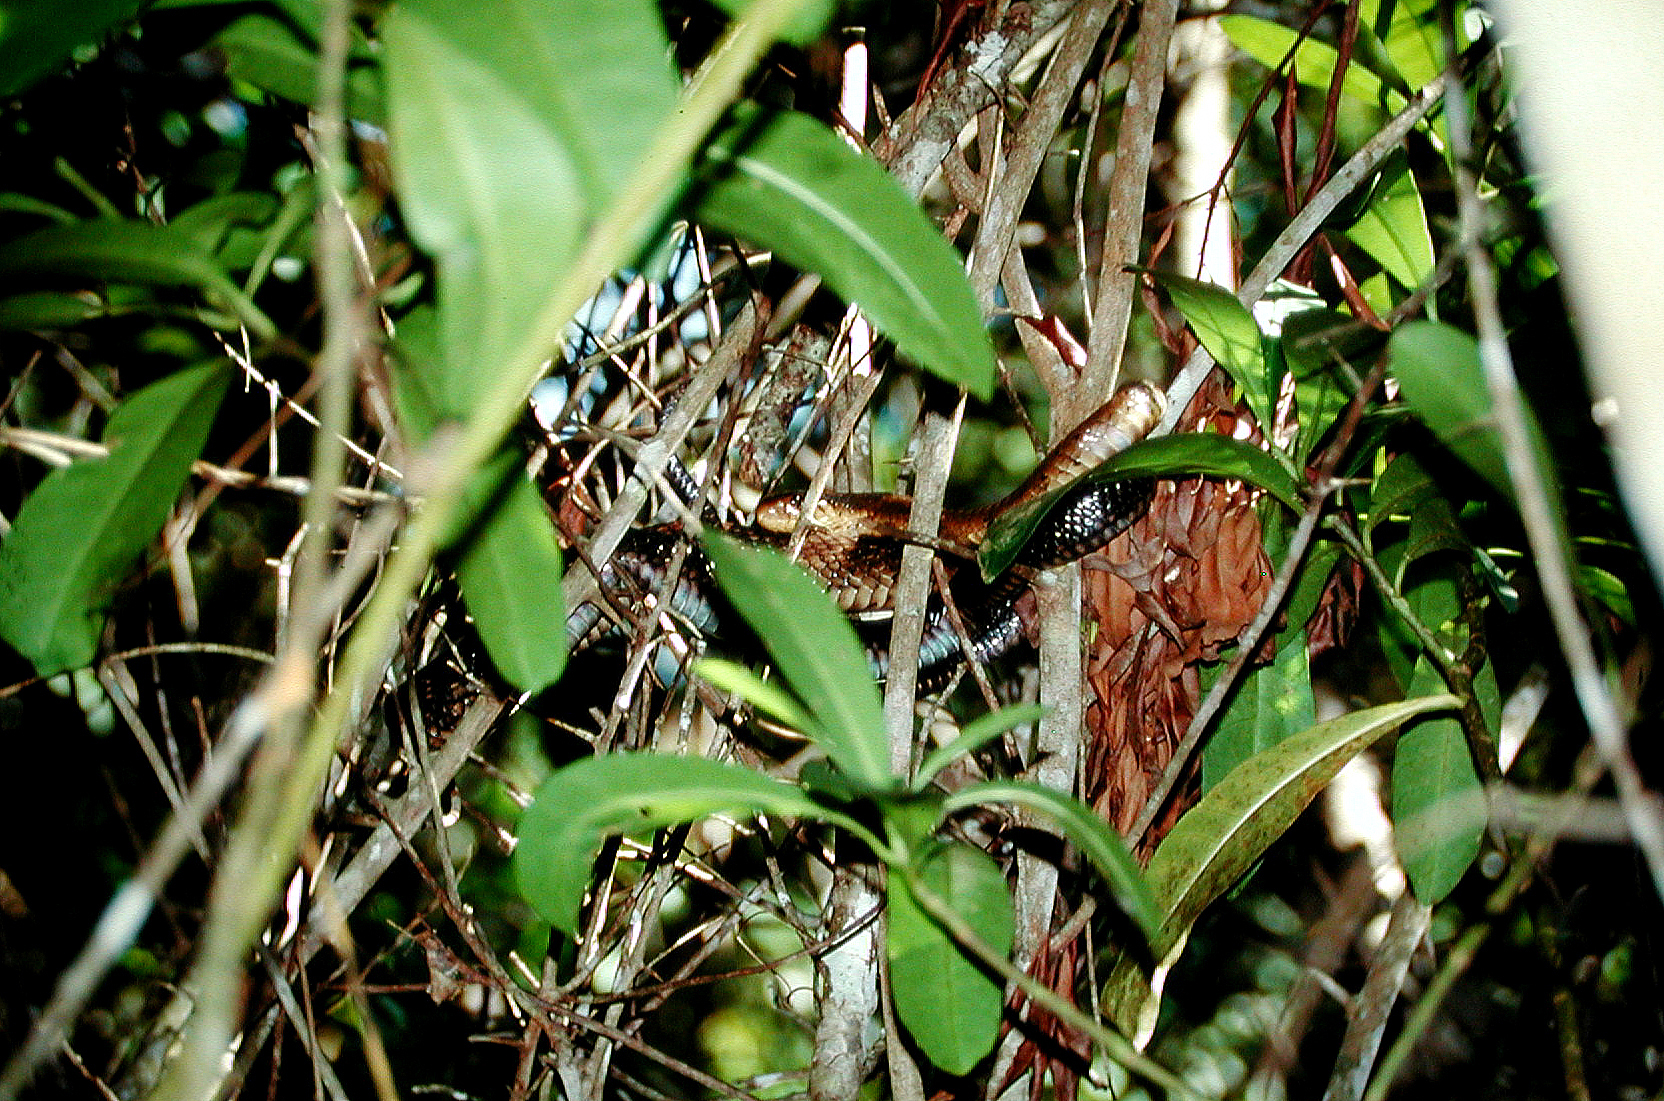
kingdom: Animalia
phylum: Chordata
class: Squamata
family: Elapidae
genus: Naja
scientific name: Naja subfulva
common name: Brown forest cobra
